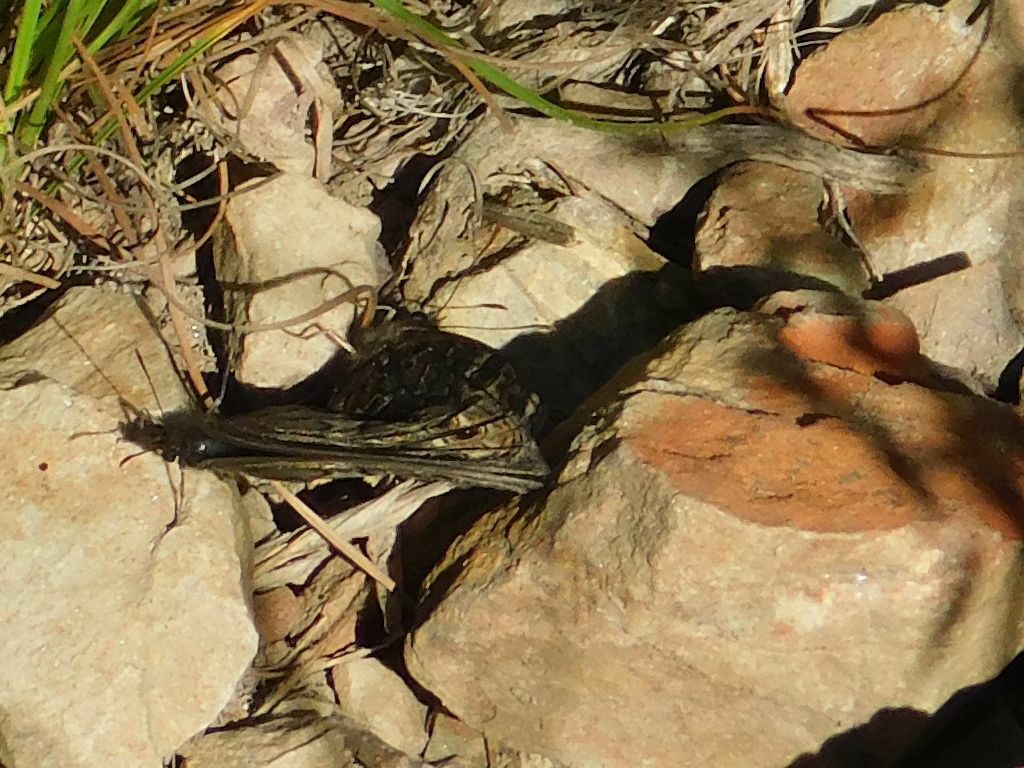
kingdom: Animalia
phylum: Arthropoda
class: Insecta
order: Lepidoptera
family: Nymphalidae
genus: Dira
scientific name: Dira clytus
